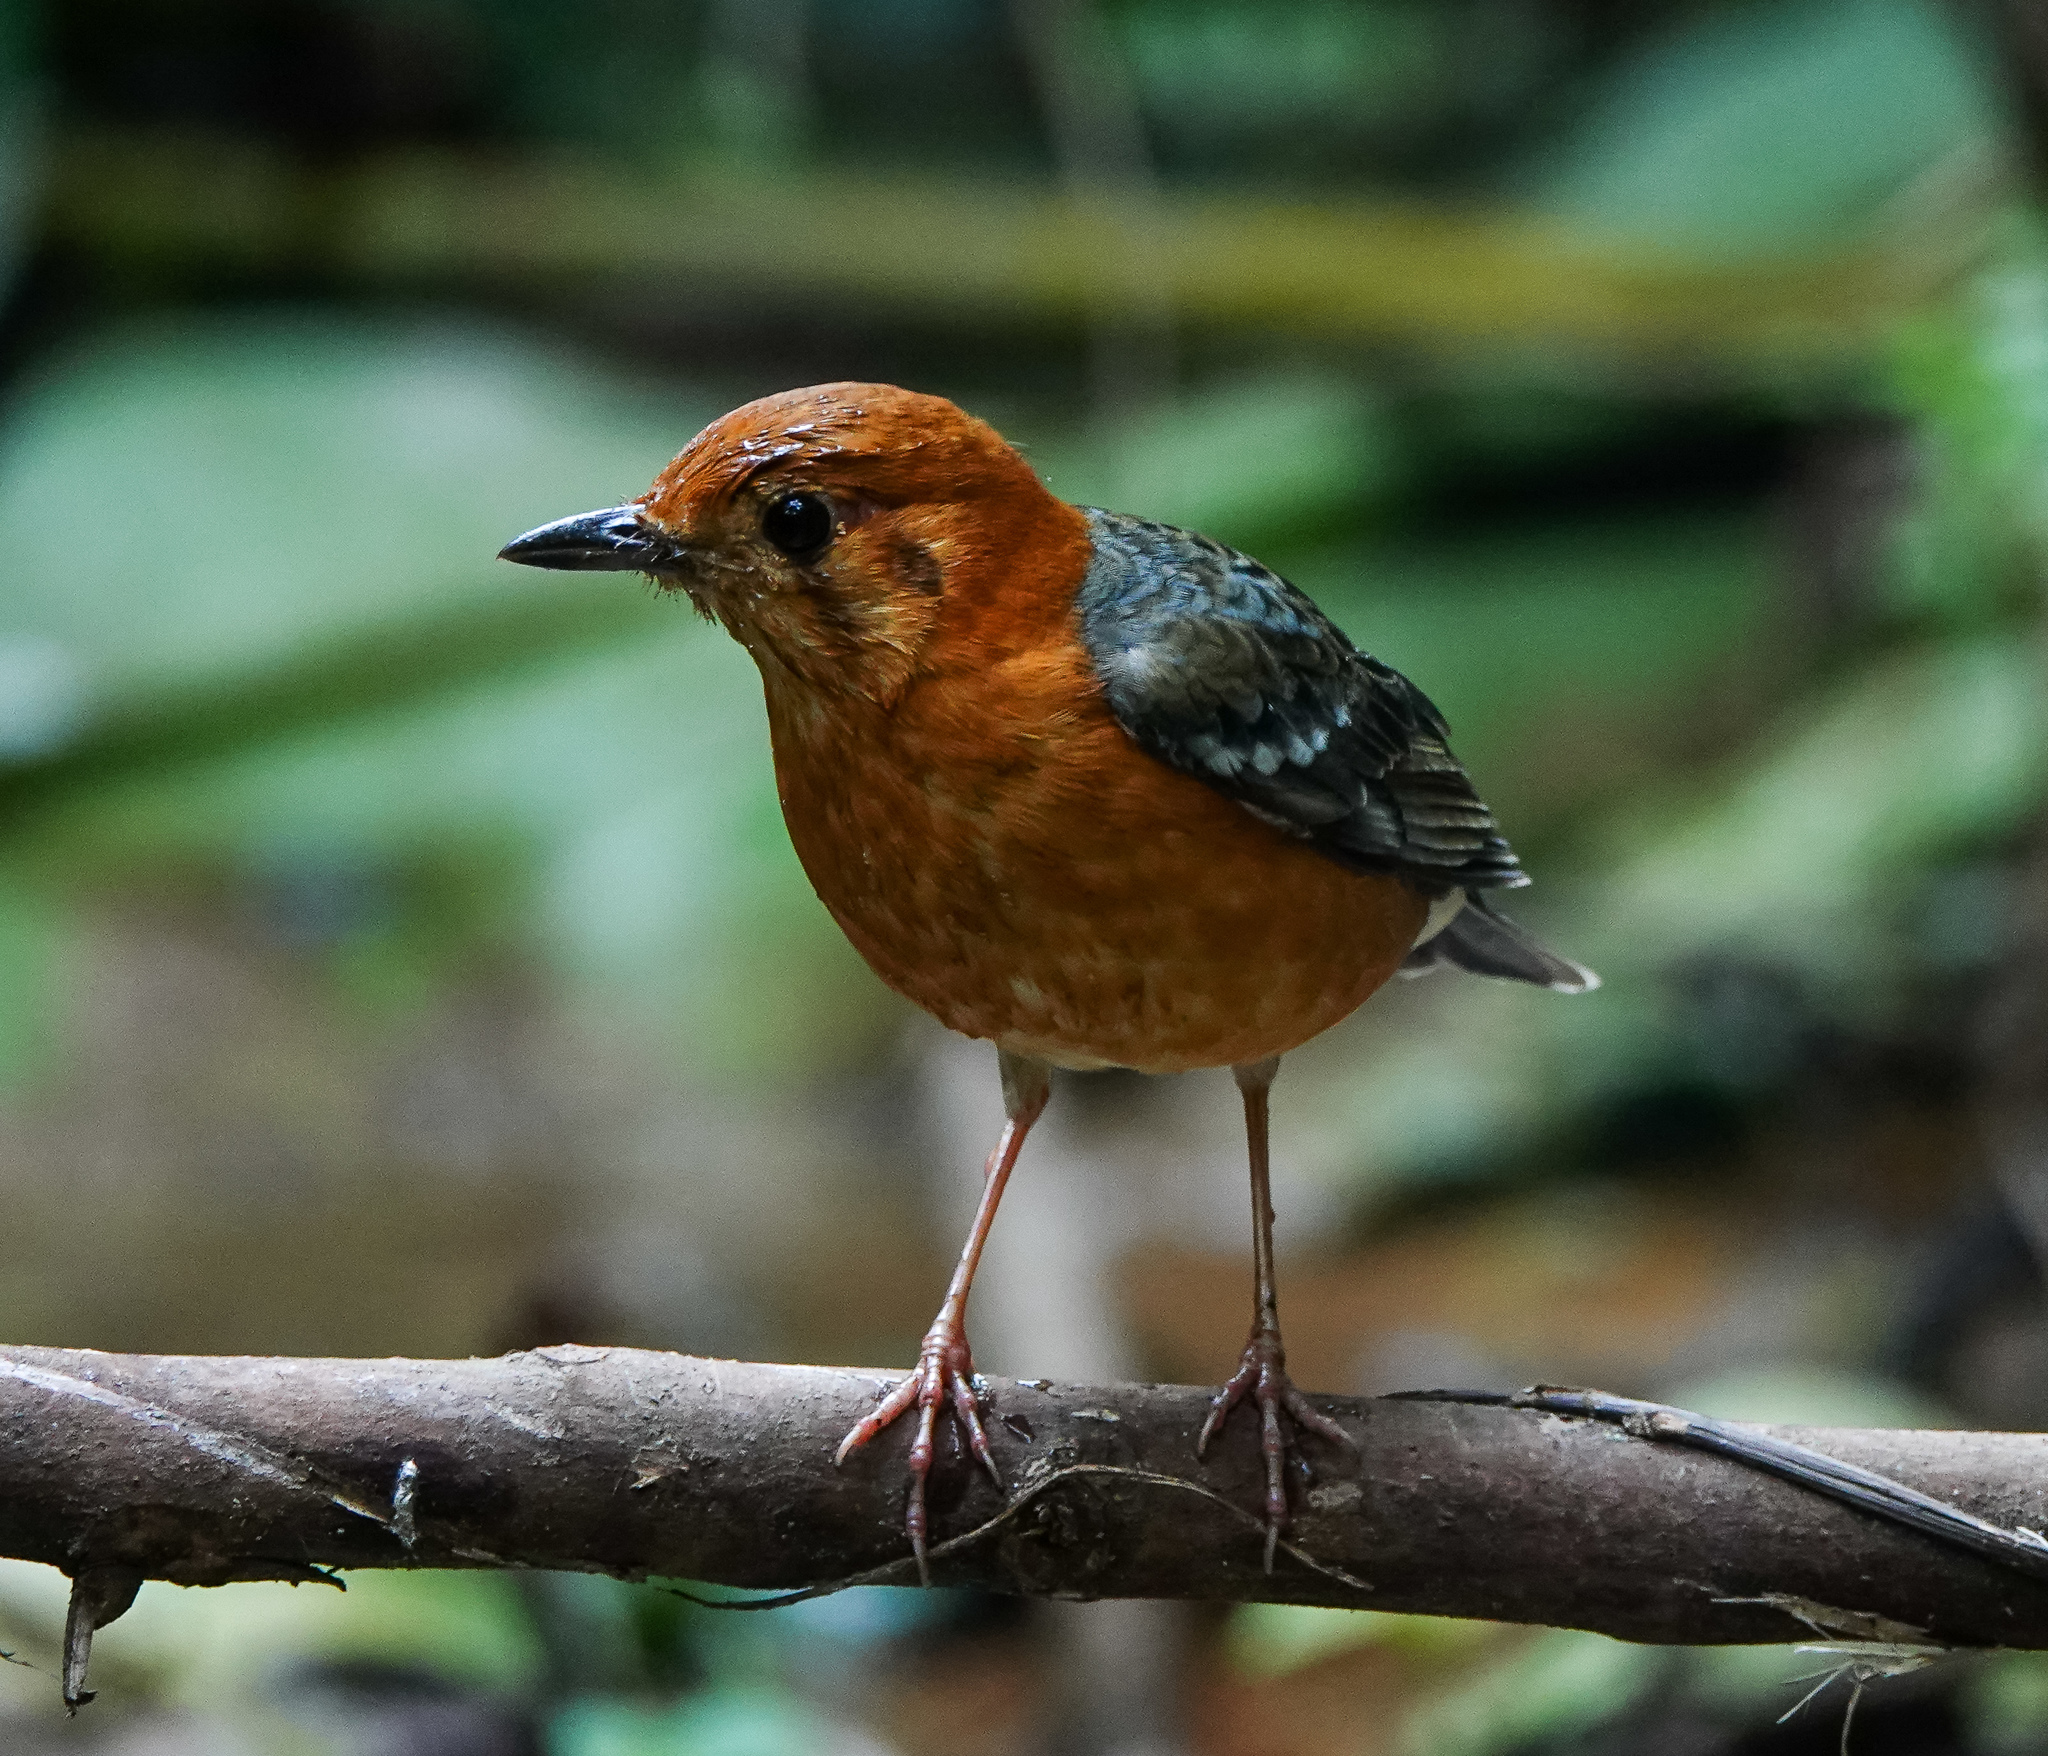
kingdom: Animalia
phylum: Chordata
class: Aves
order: Passeriformes
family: Turdidae
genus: Geokichla
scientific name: Geokichla citrina
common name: Orange-headed thrush
